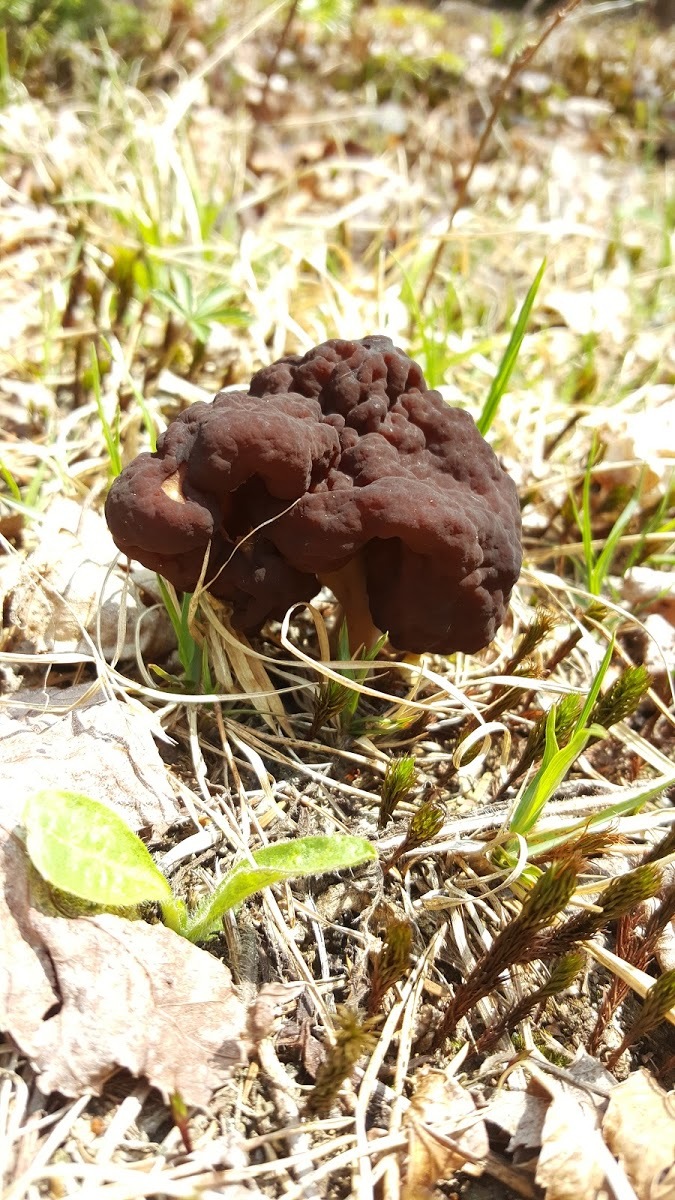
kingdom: Fungi
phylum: Ascomycota
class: Pezizomycetes
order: Pezizales
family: Discinaceae
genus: Gyromitra
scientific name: Gyromitra
